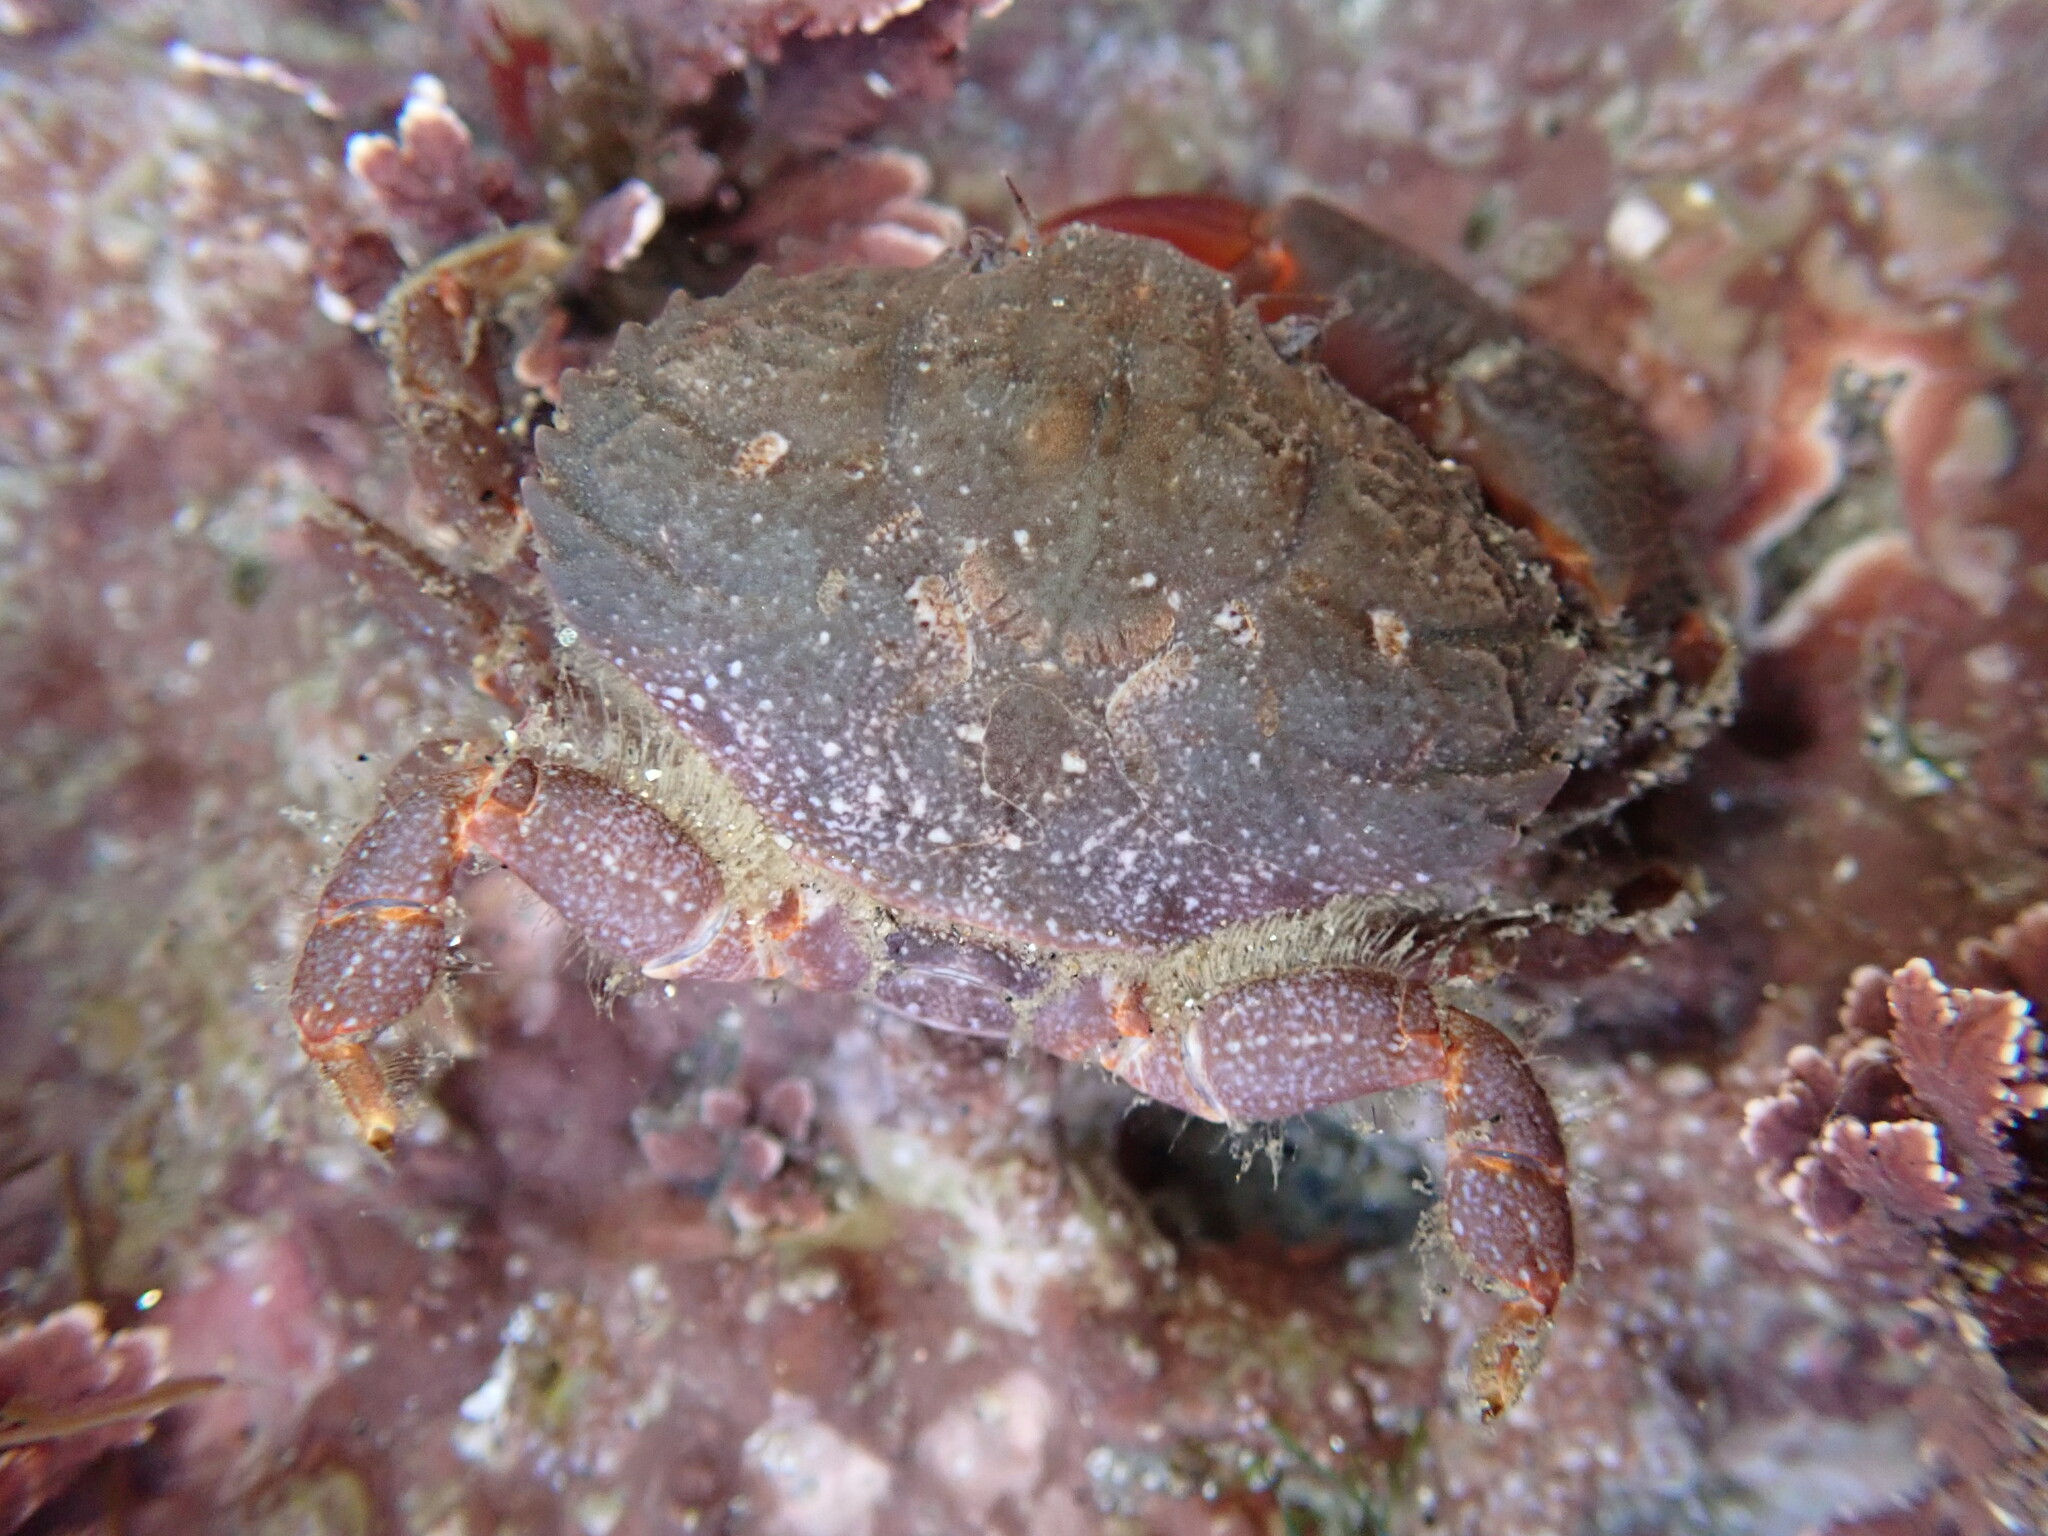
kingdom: Animalia
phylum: Arthropoda
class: Malacostraca
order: Decapoda
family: Xanthidae
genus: Cycloxanthops
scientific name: Cycloxanthops novemdentatus
